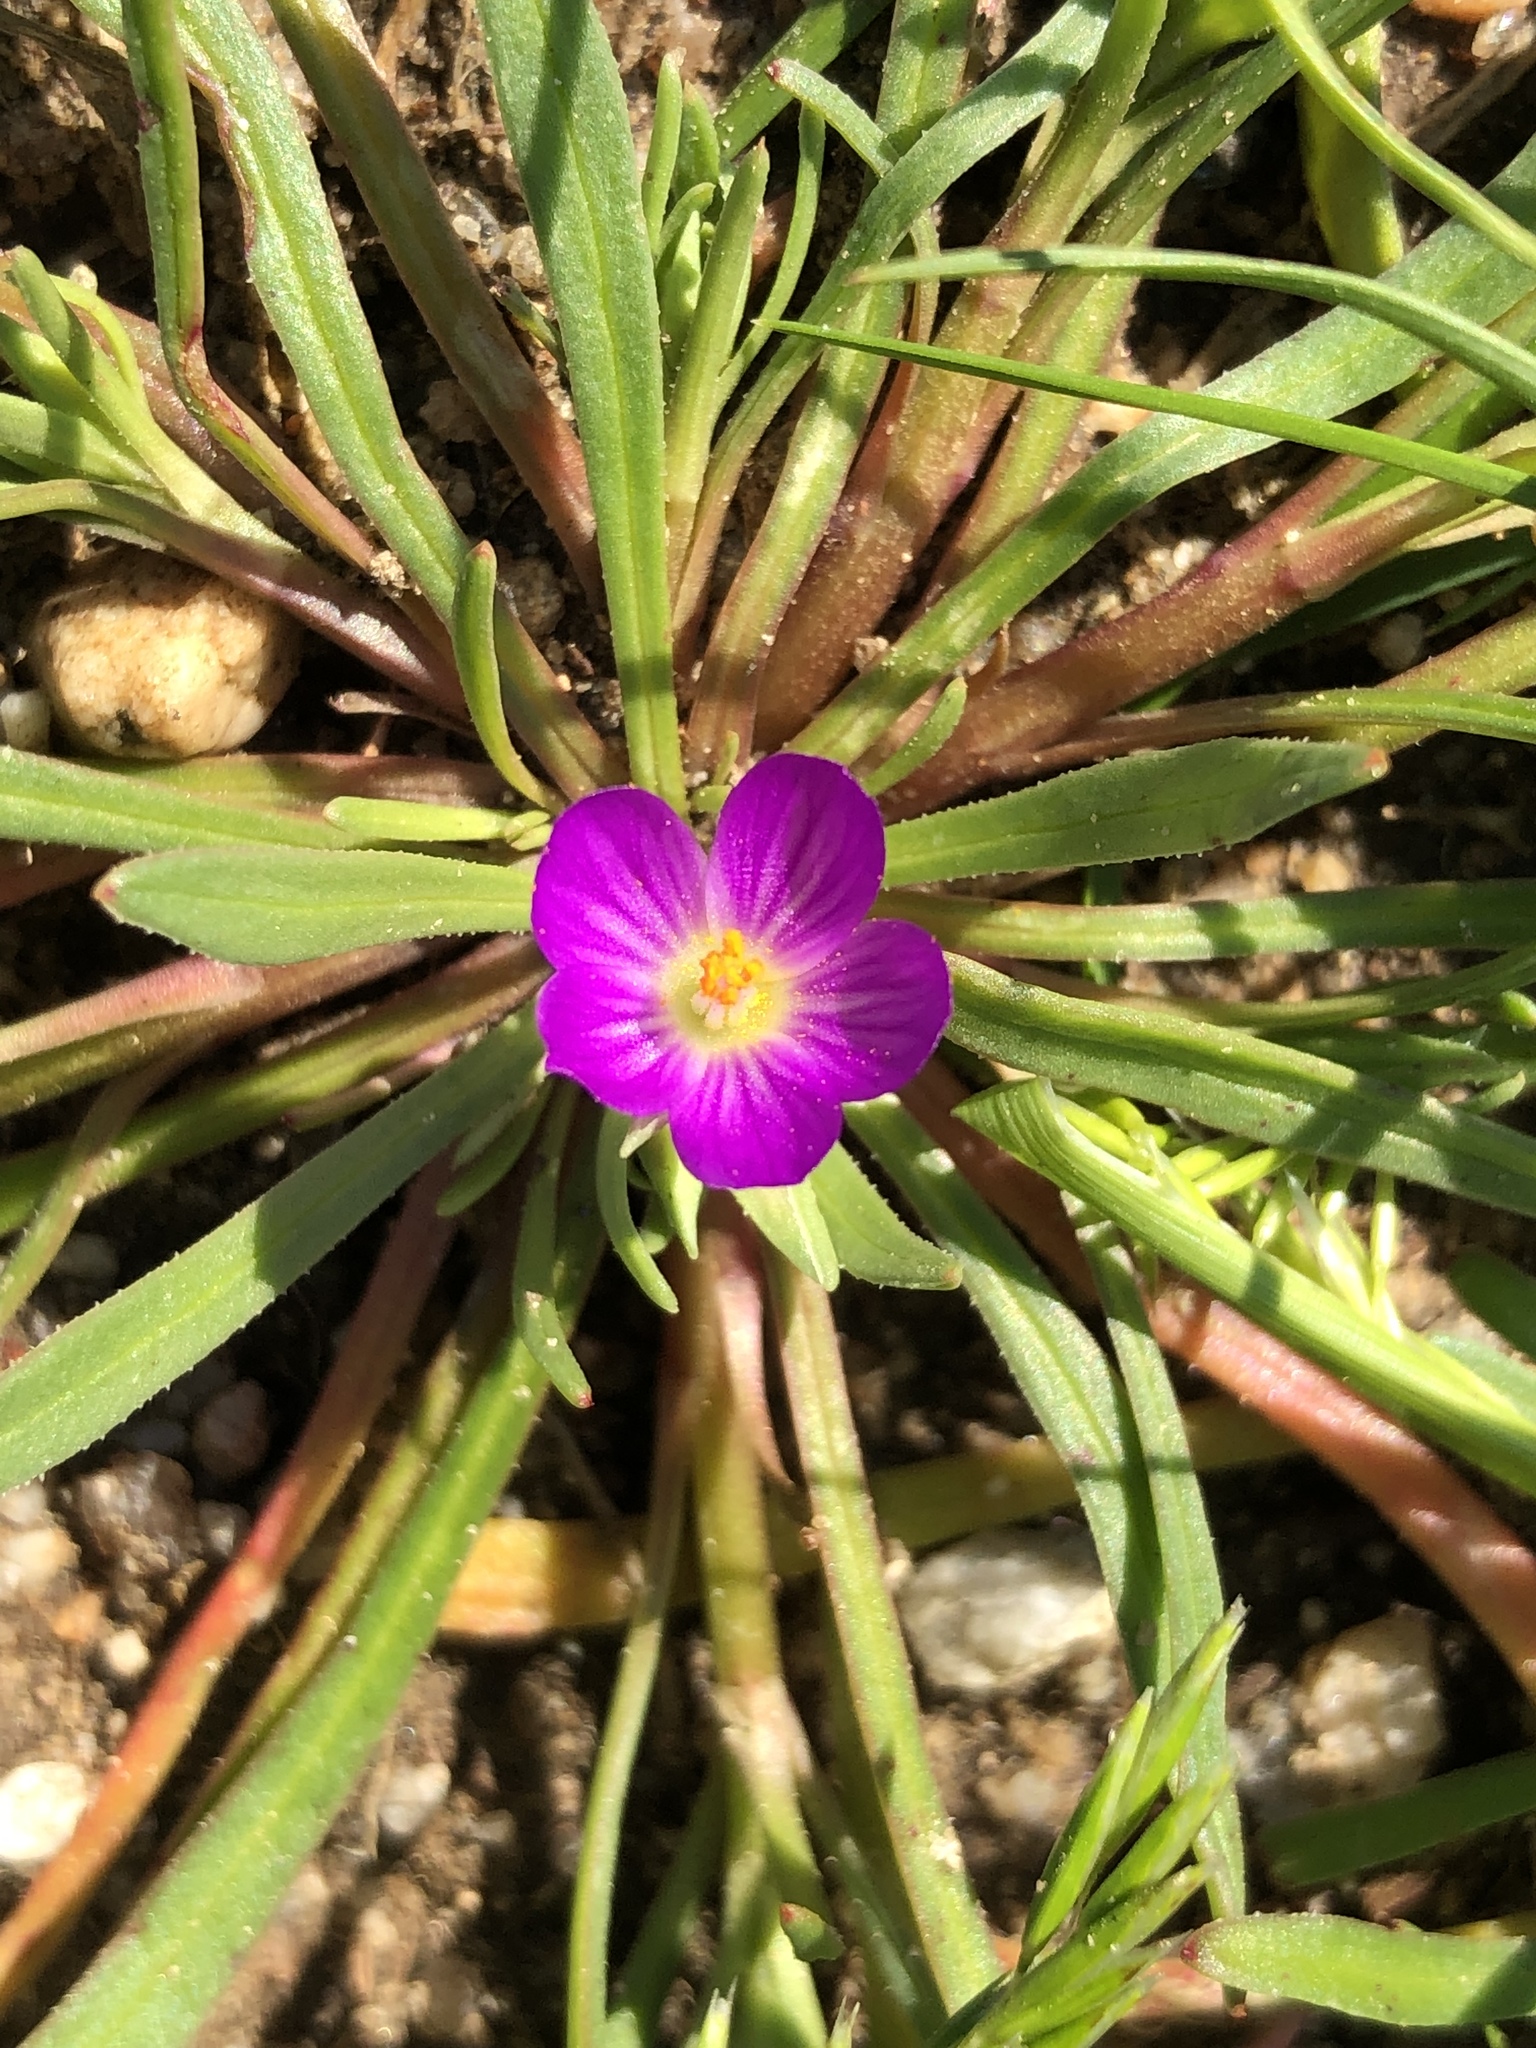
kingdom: Plantae
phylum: Tracheophyta
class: Magnoliopsida
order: Caryophyllales
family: Montiaceae
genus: Calandrinia
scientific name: Calandrinia menziesii
